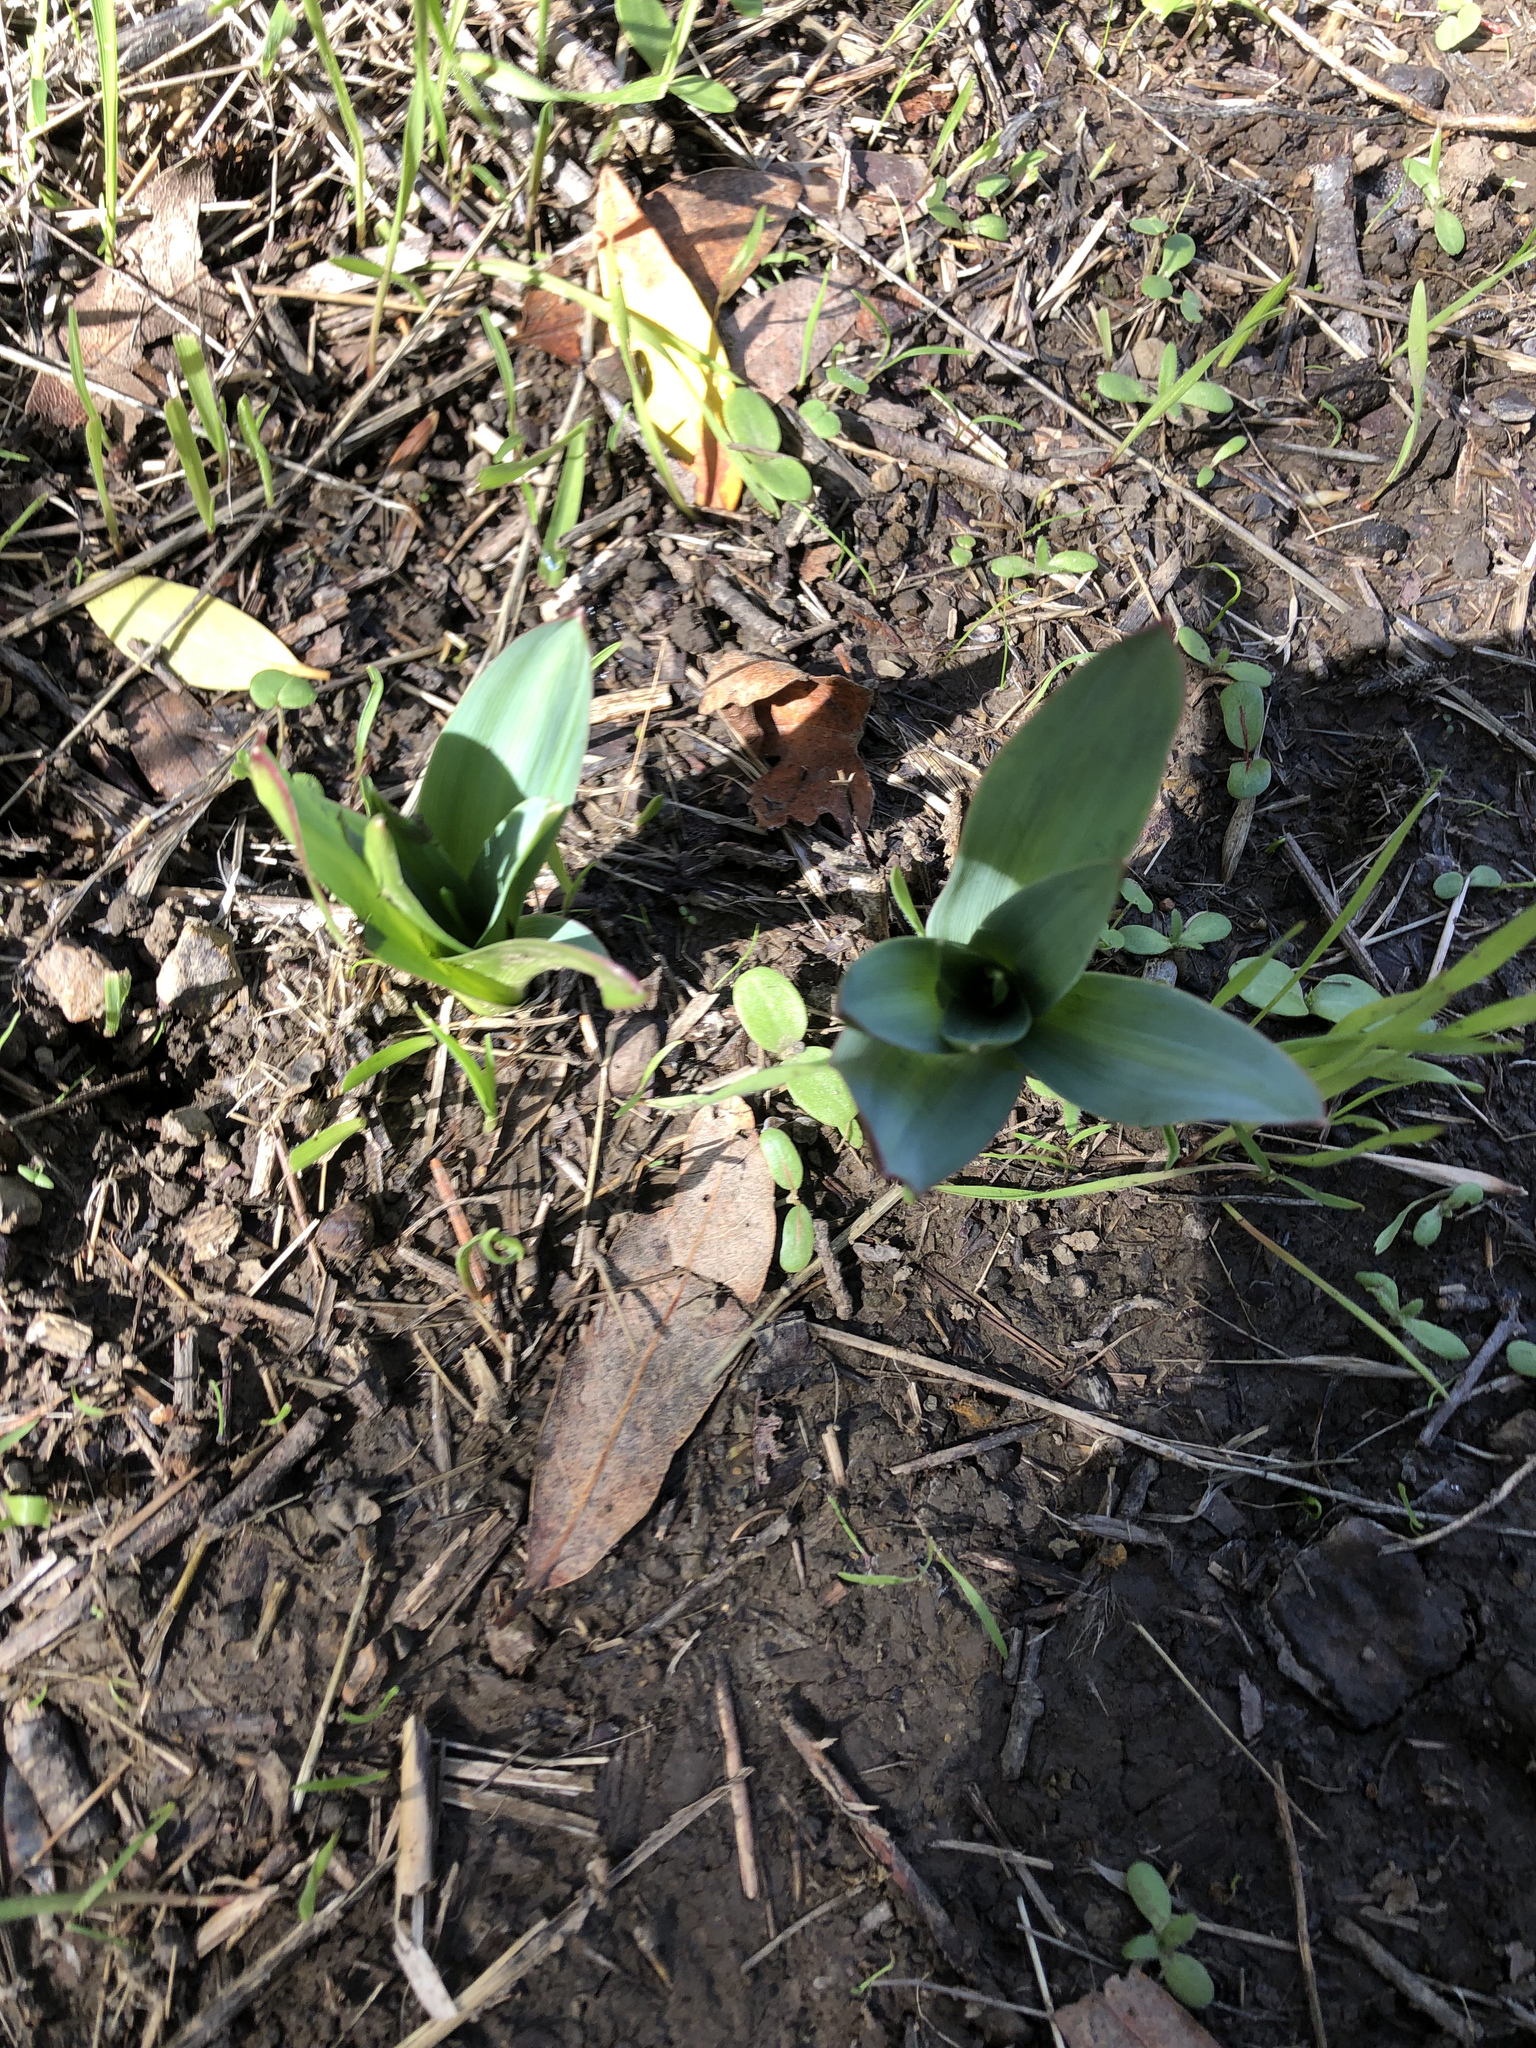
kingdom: Plantae
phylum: Tracheophyta
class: Liliopsida
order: Asparagales
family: Asparagaceae
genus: Chlorogalum
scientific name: Chlorogalum pomeridianum
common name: Amole
